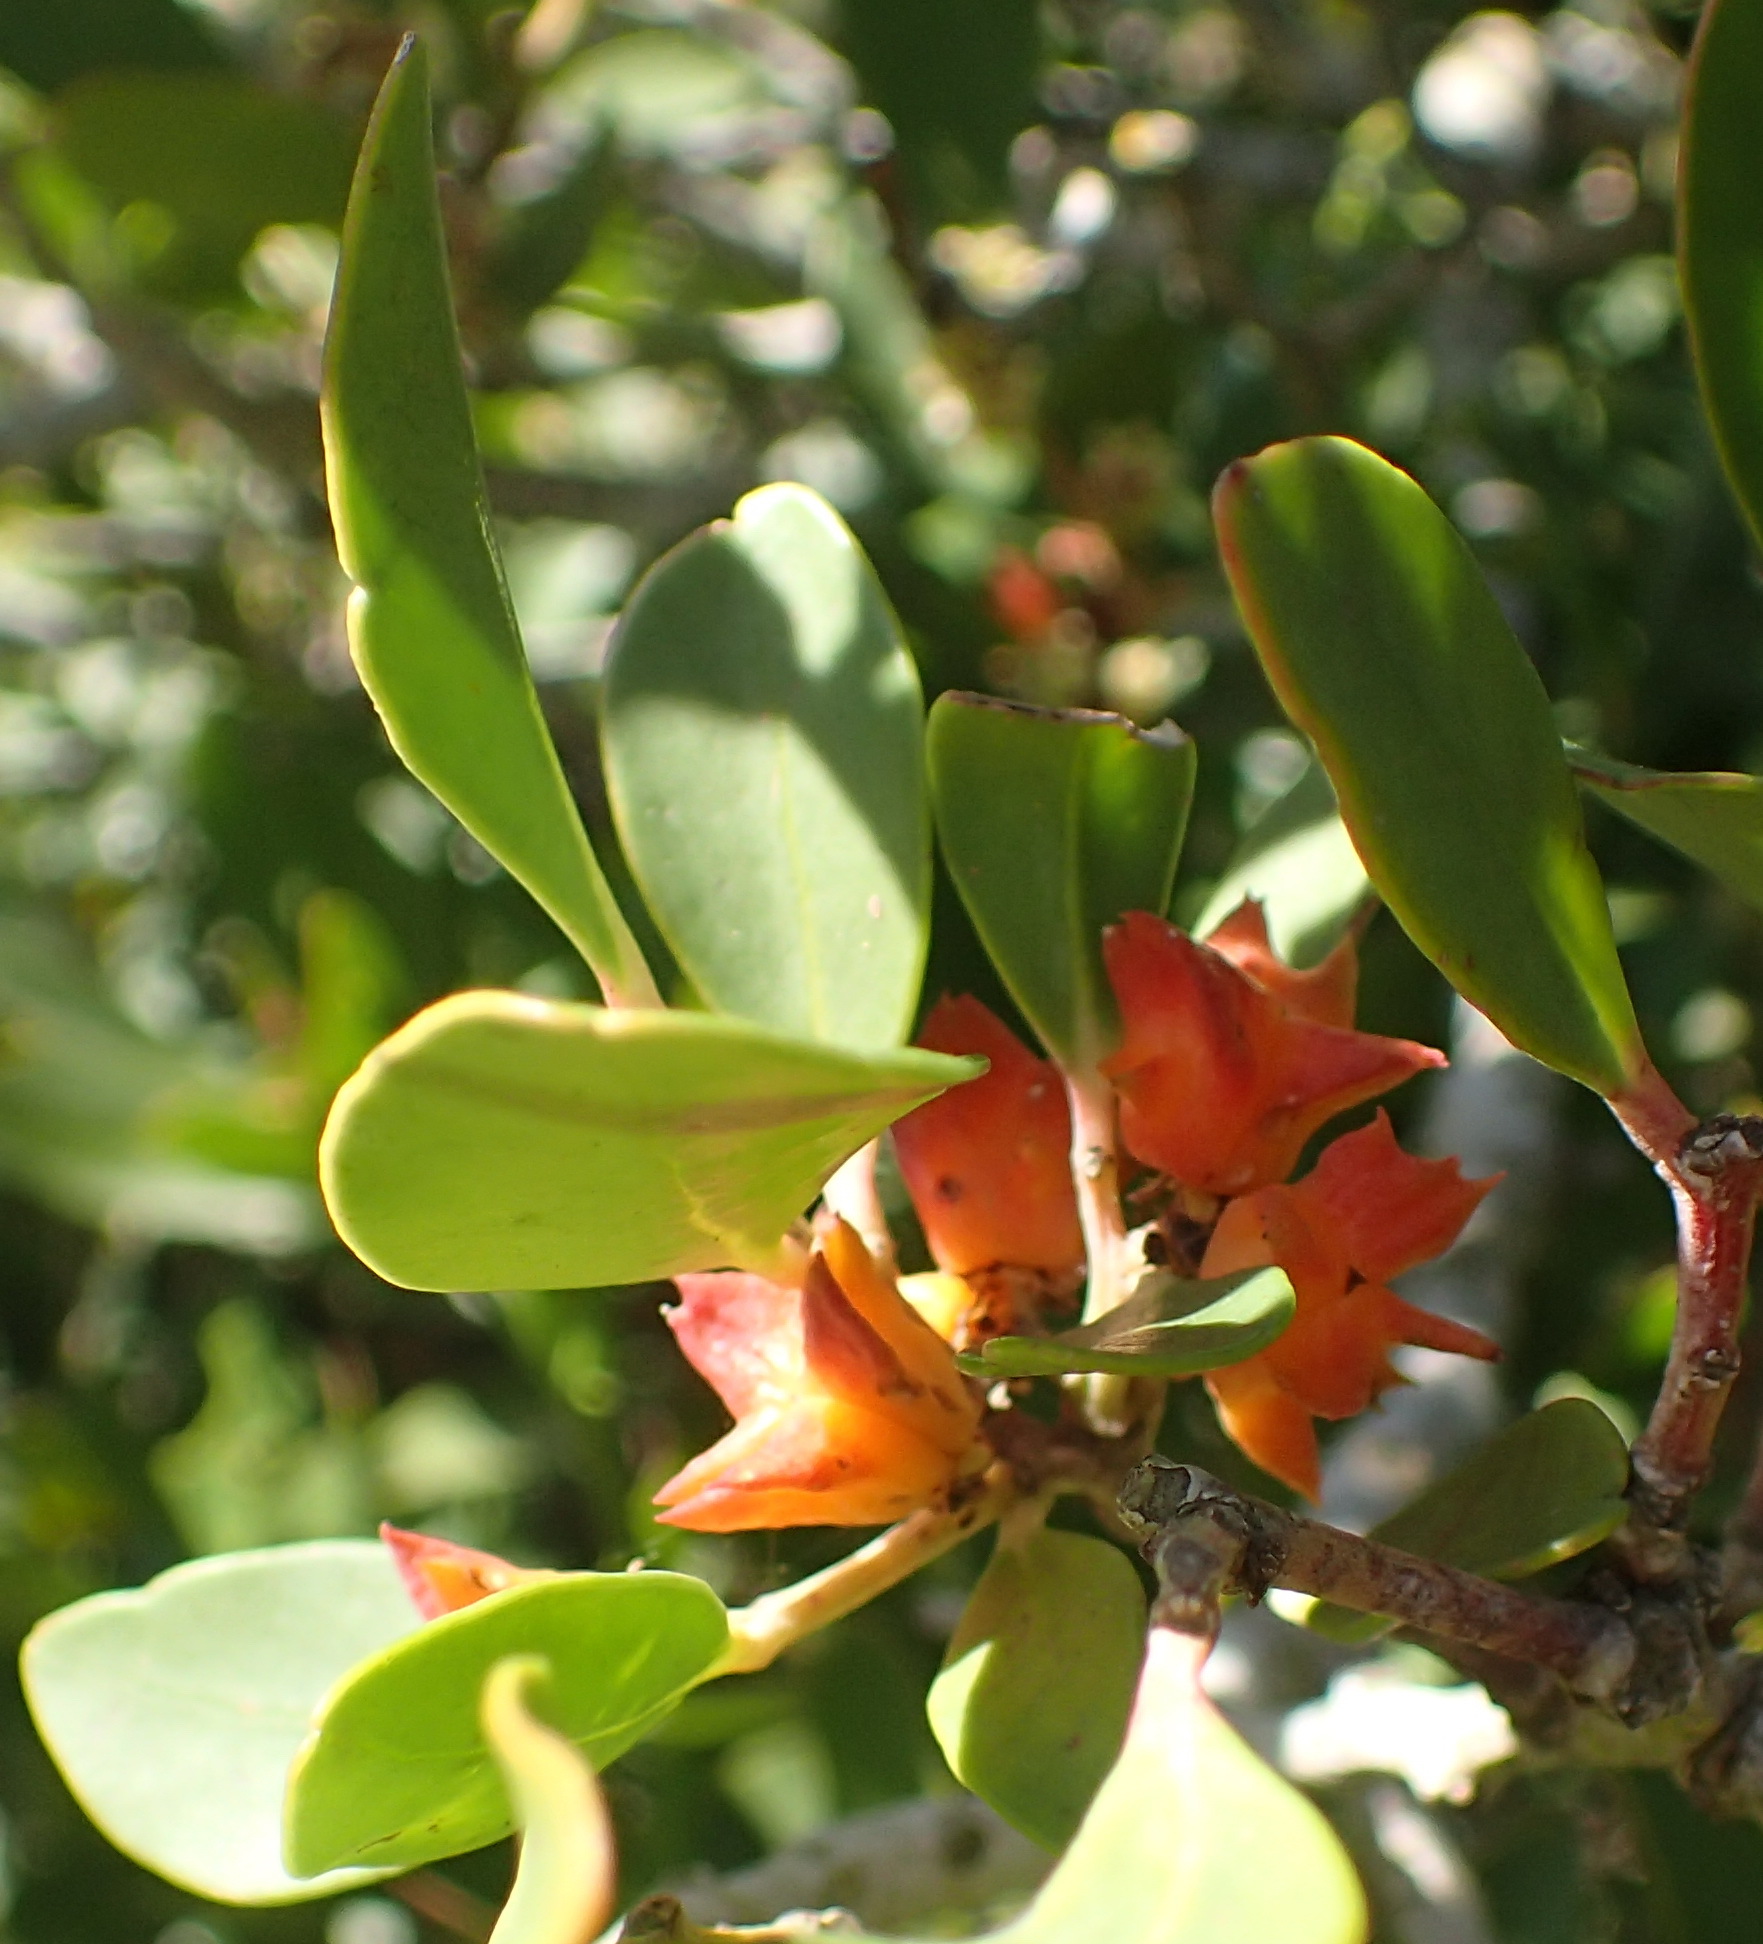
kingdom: Plantae
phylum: Tracheophyta
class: Magnoliopsida
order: Celastrales
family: Celastraceae
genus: Pterocelastrus
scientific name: Pterocelastrus tricuspidatus
